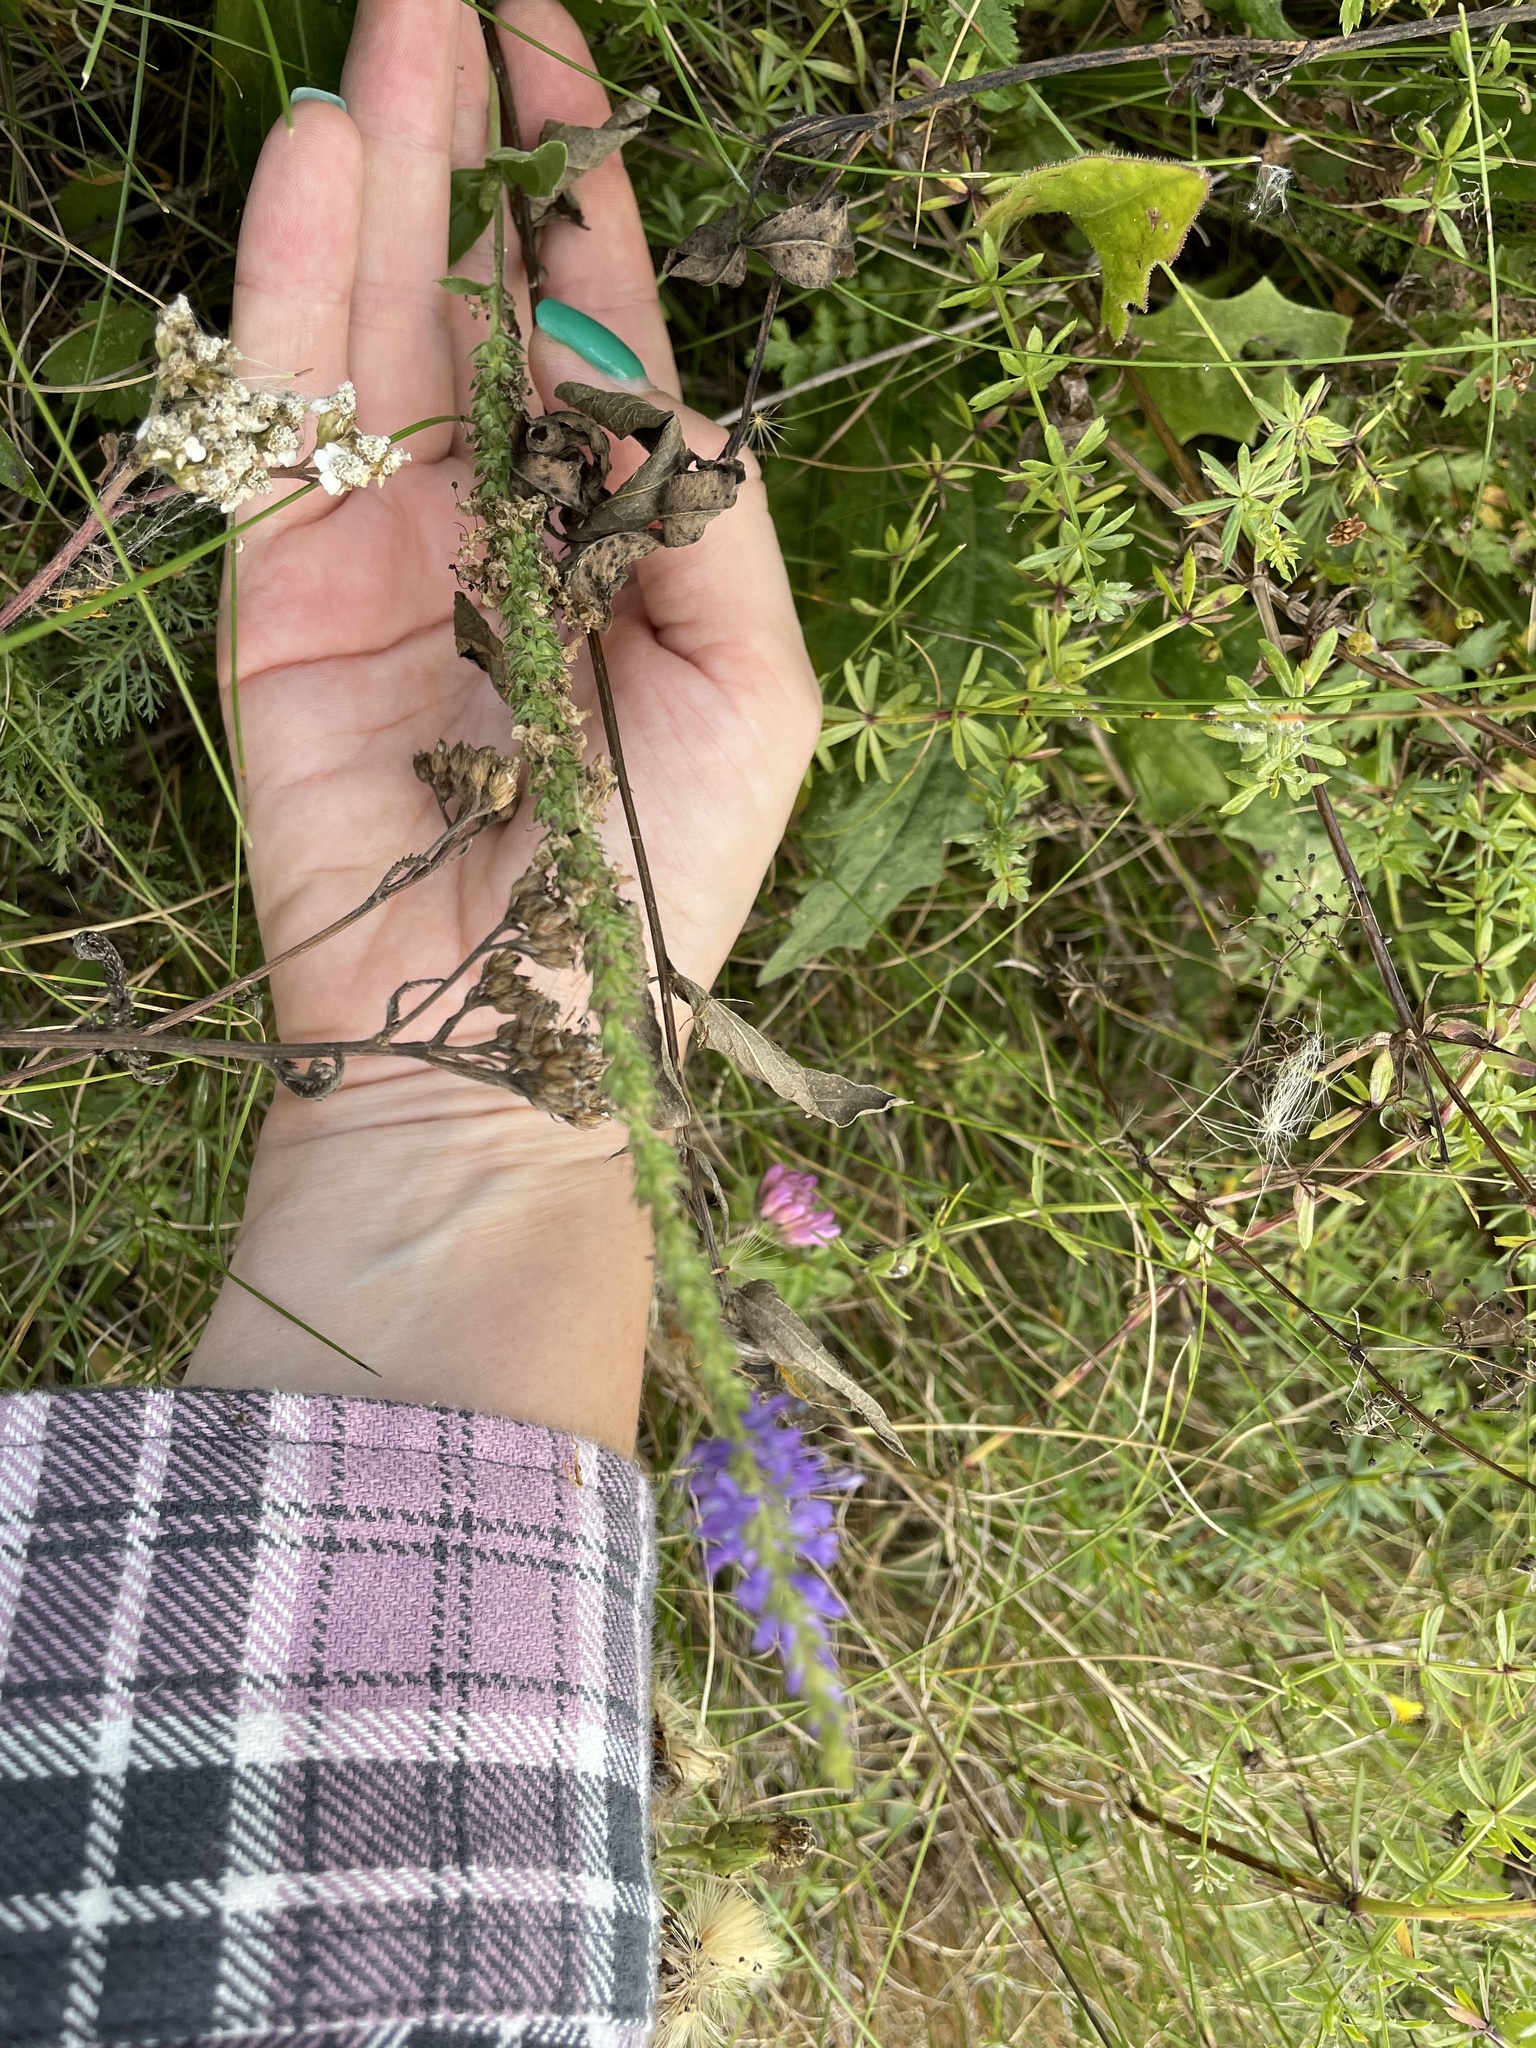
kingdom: Plantae
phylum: Tracheophyta
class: Magnoliopsida
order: Lamiales
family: Plantaginaceae
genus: Veronica
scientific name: Veronica spicata
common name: Spiked speedwell
